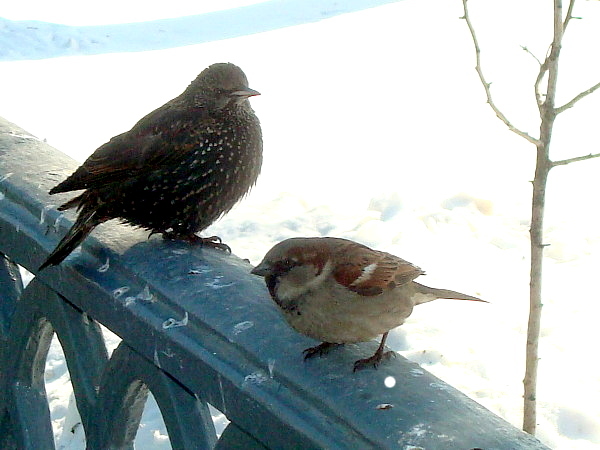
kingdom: Animalia
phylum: Chordata
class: Aves
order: Passeriformes
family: Passeridae
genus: Passer
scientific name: Passer domesticus
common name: House sparrow
